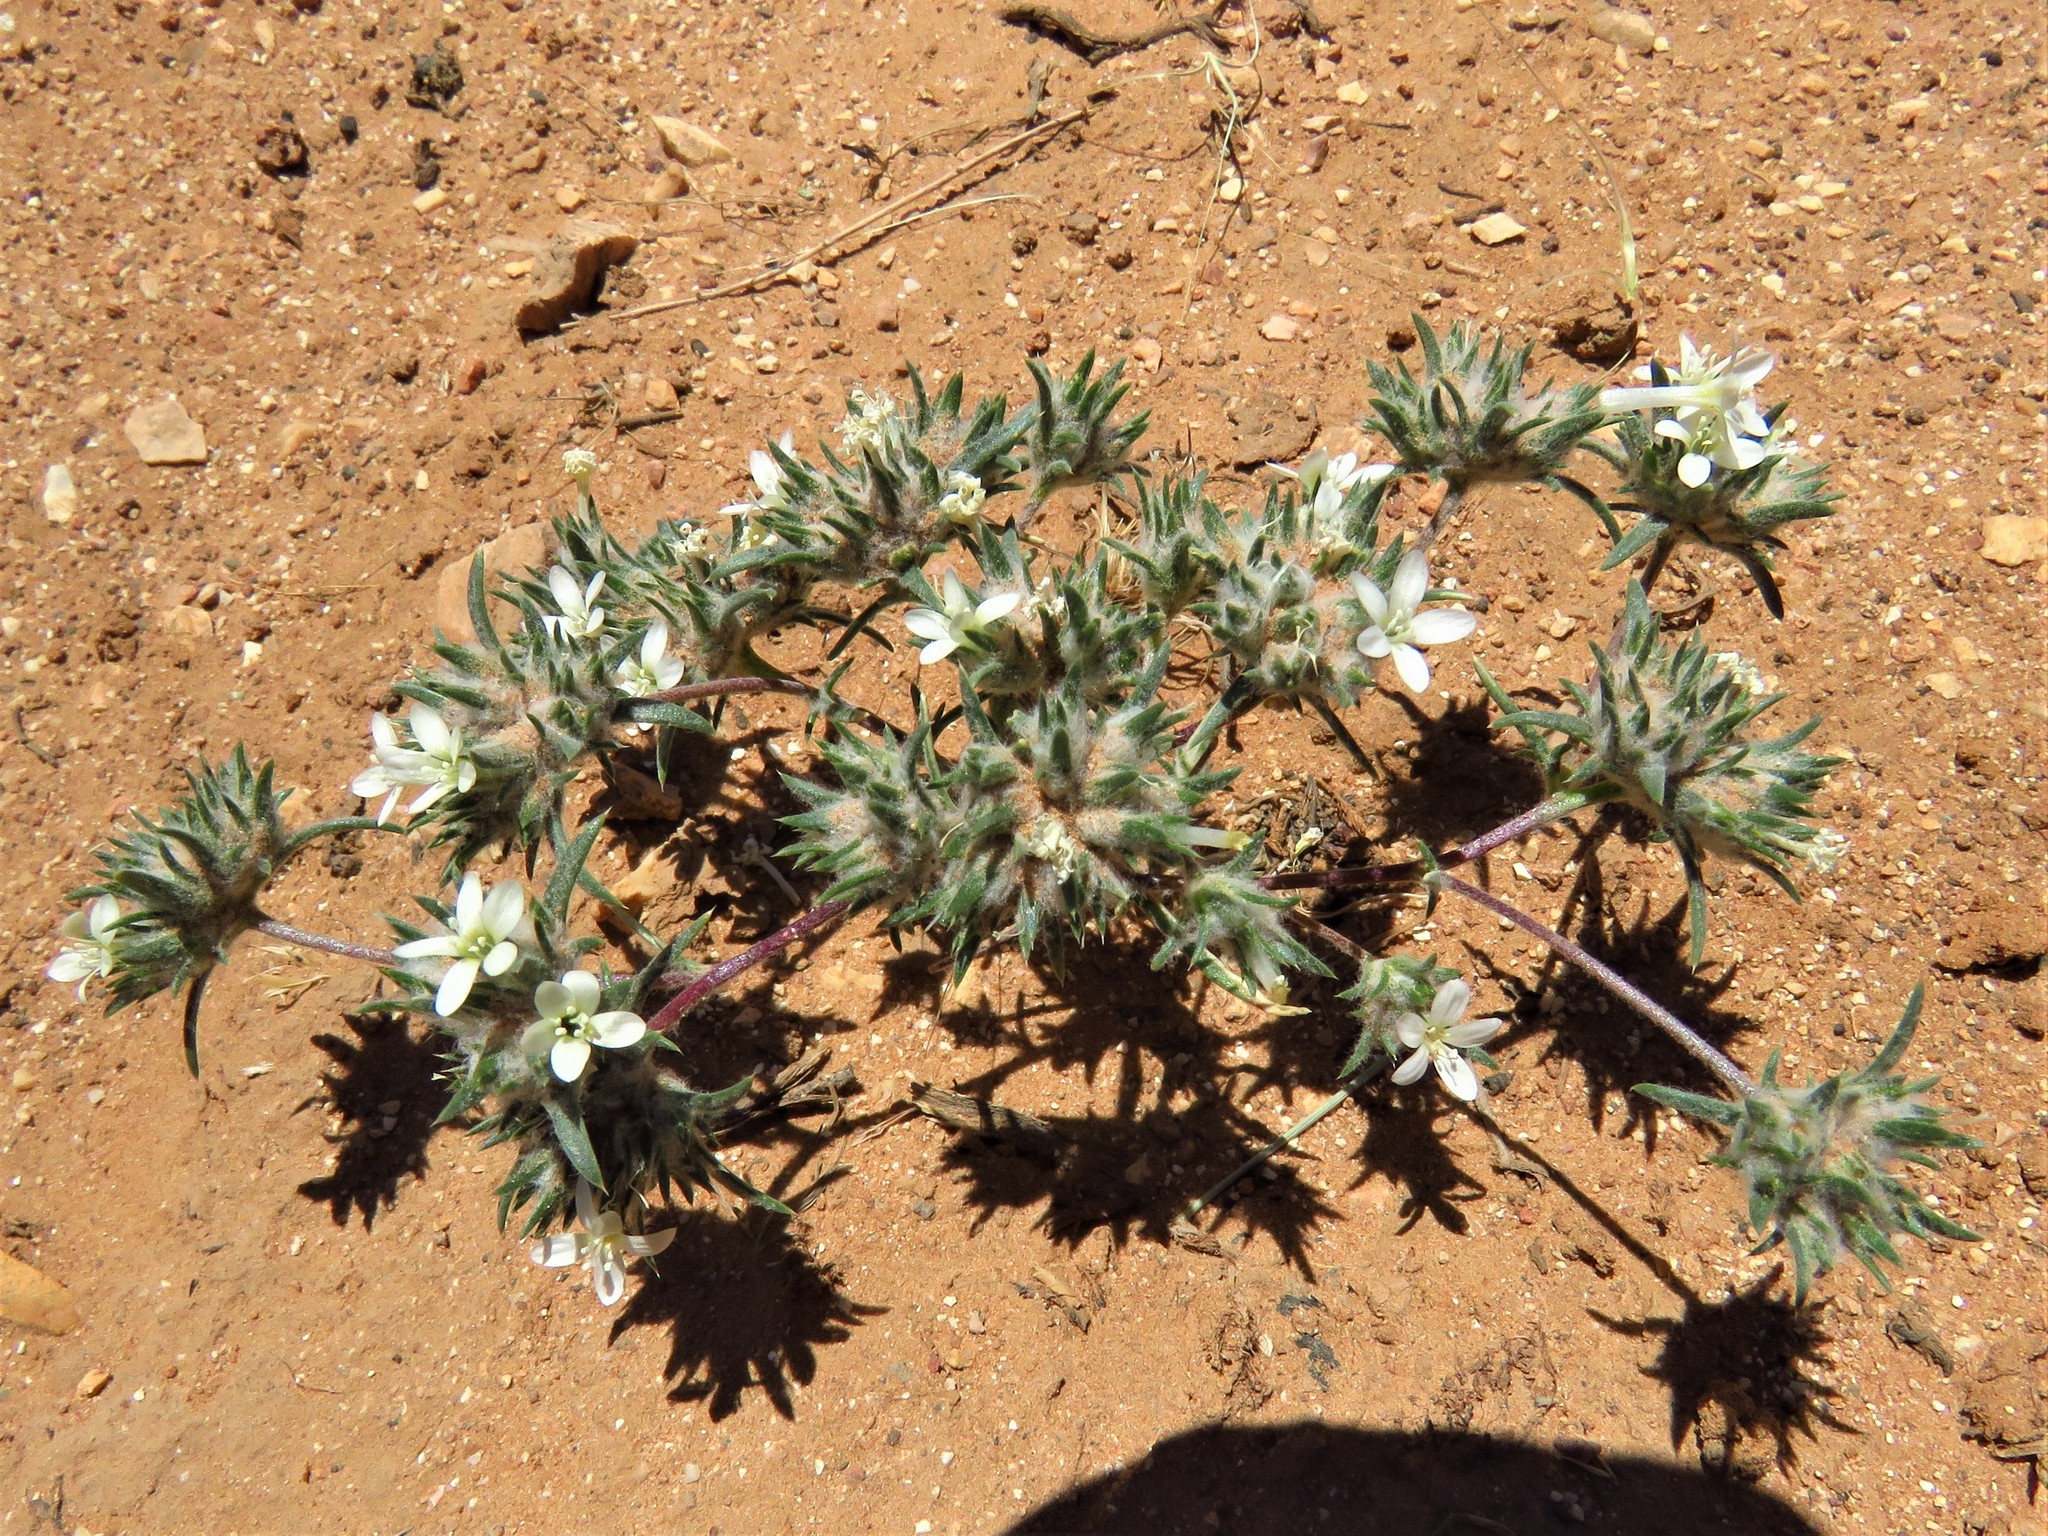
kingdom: Plantae
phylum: Tracheophyta
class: Magnoliopsida
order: Ericales
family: Polemoniaceae
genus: Eriastrum
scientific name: Eriastrum diffusum
